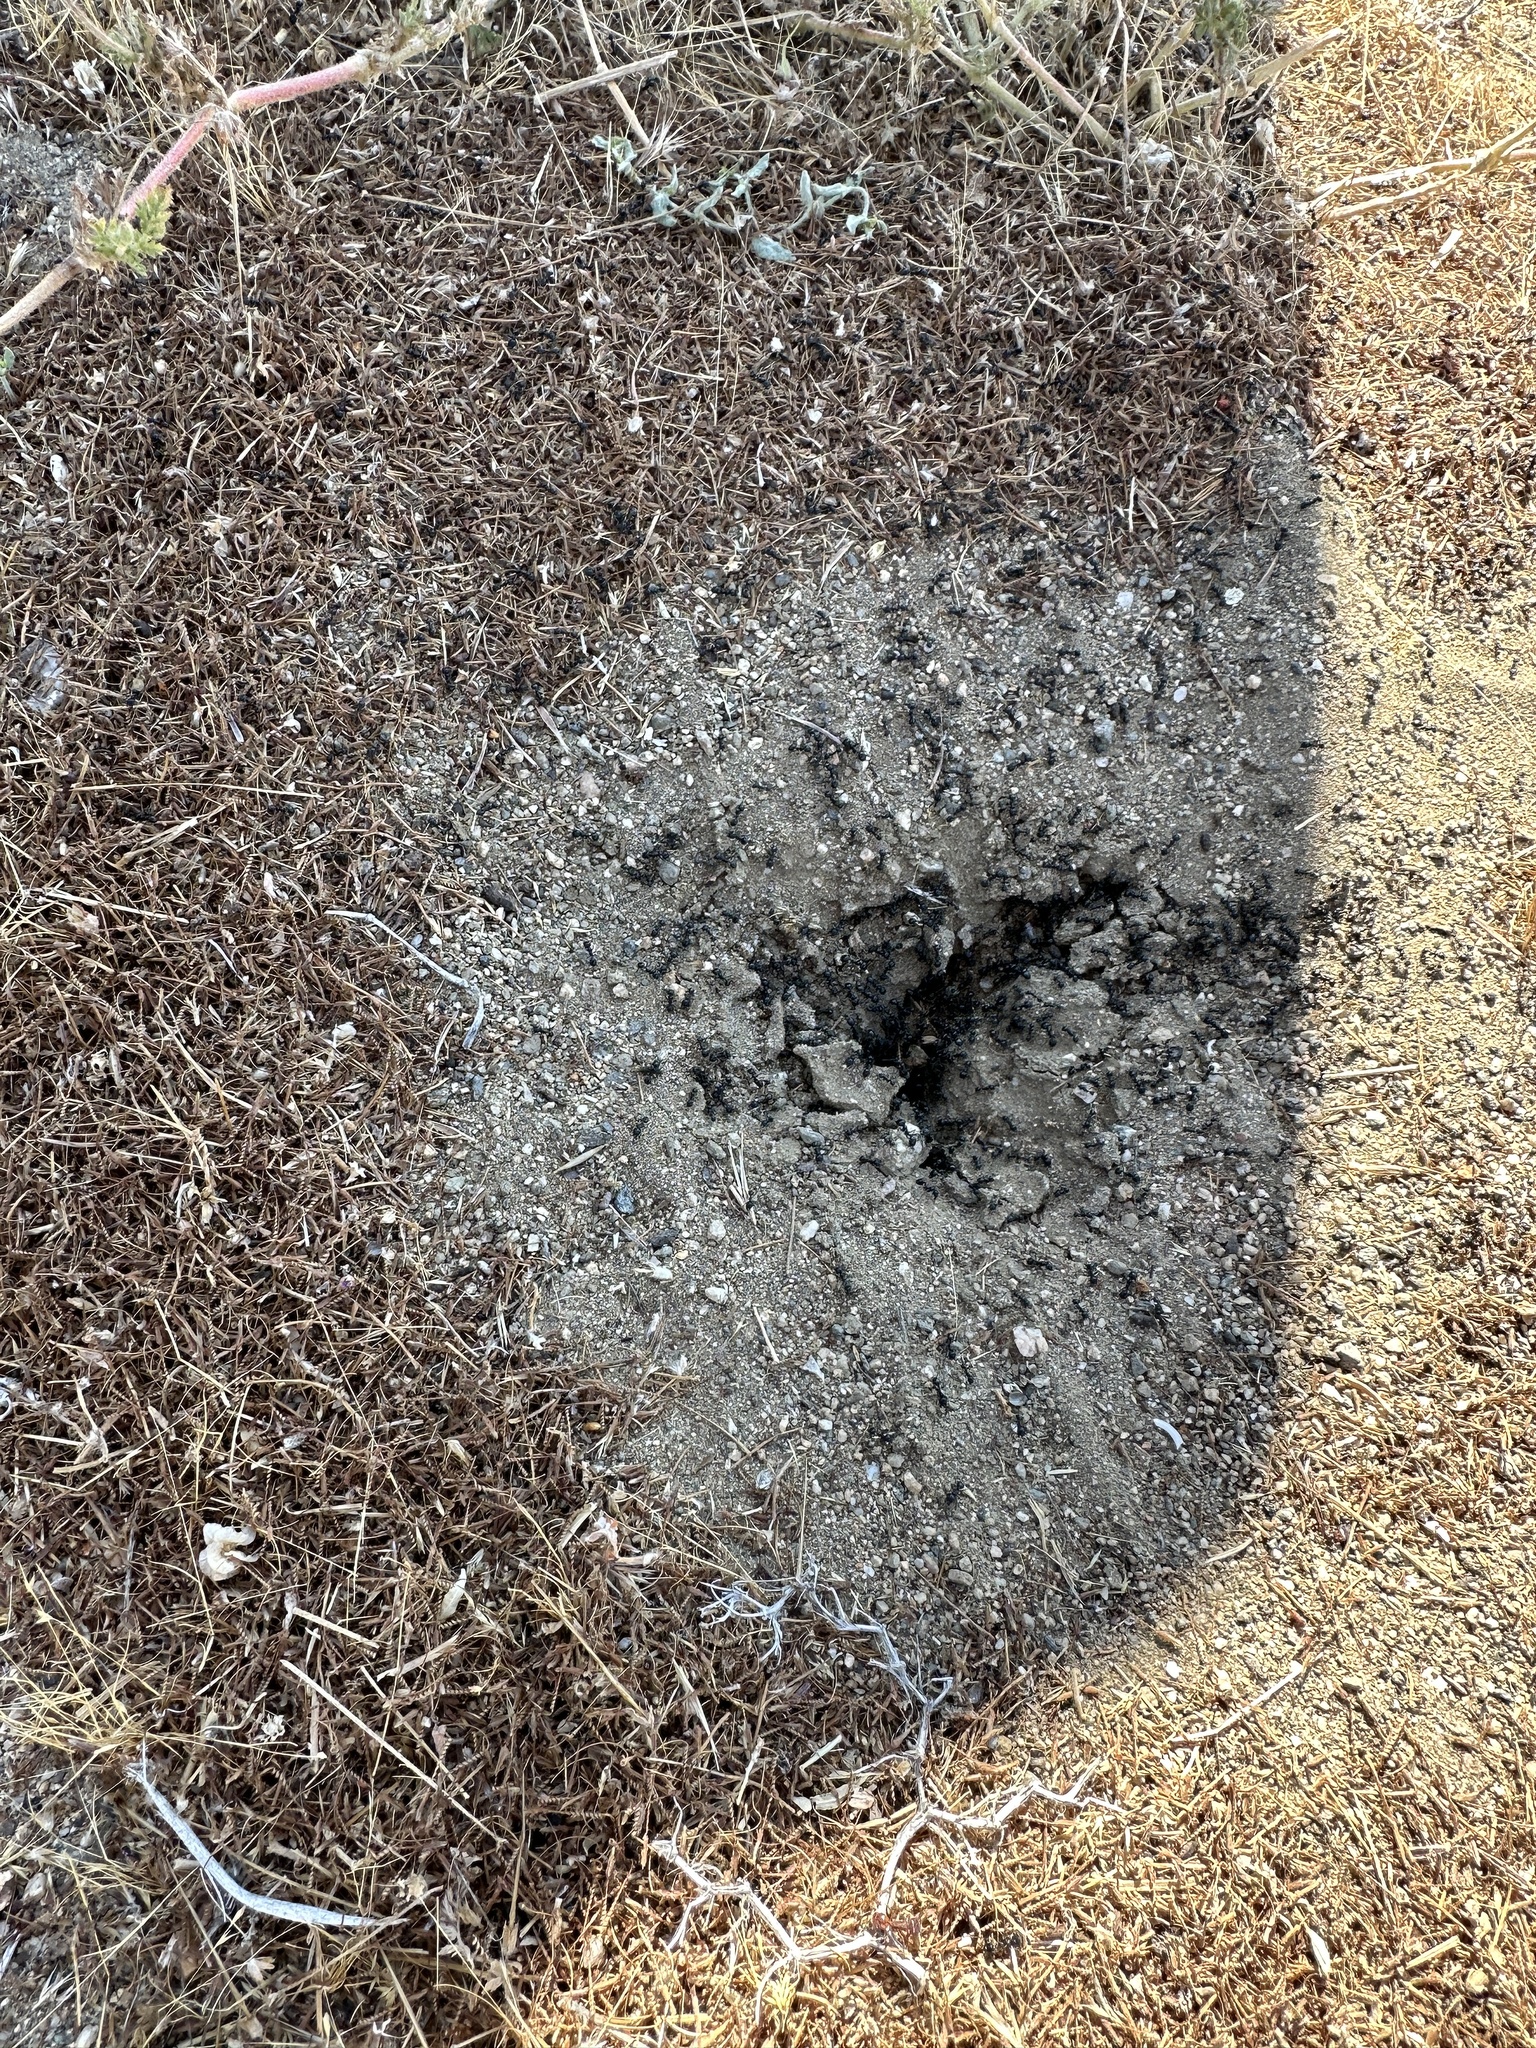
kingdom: Animalia
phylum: Arthropoda
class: Insecta
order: Hymenoptera
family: Formicidae
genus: Messor
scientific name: Messor pergandei
